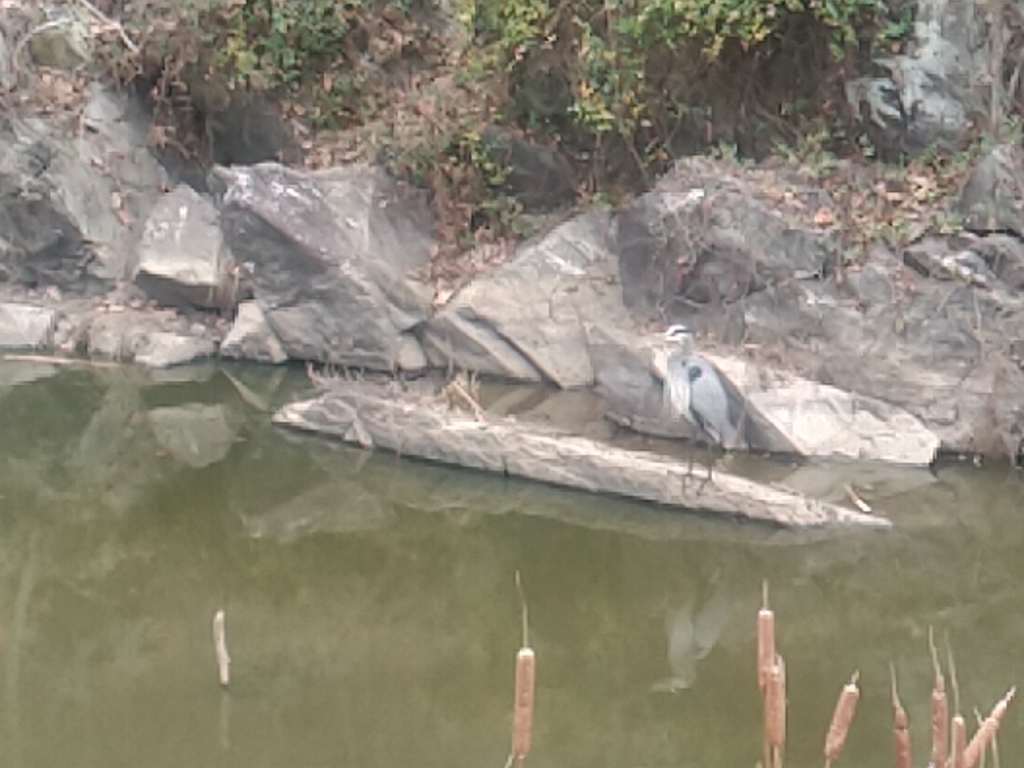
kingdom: Animalia
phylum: Chordata
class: Aves
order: Pelecaniformes
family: Ardeidae
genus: Ardea
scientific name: Ardea herodias
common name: Great blue heron
